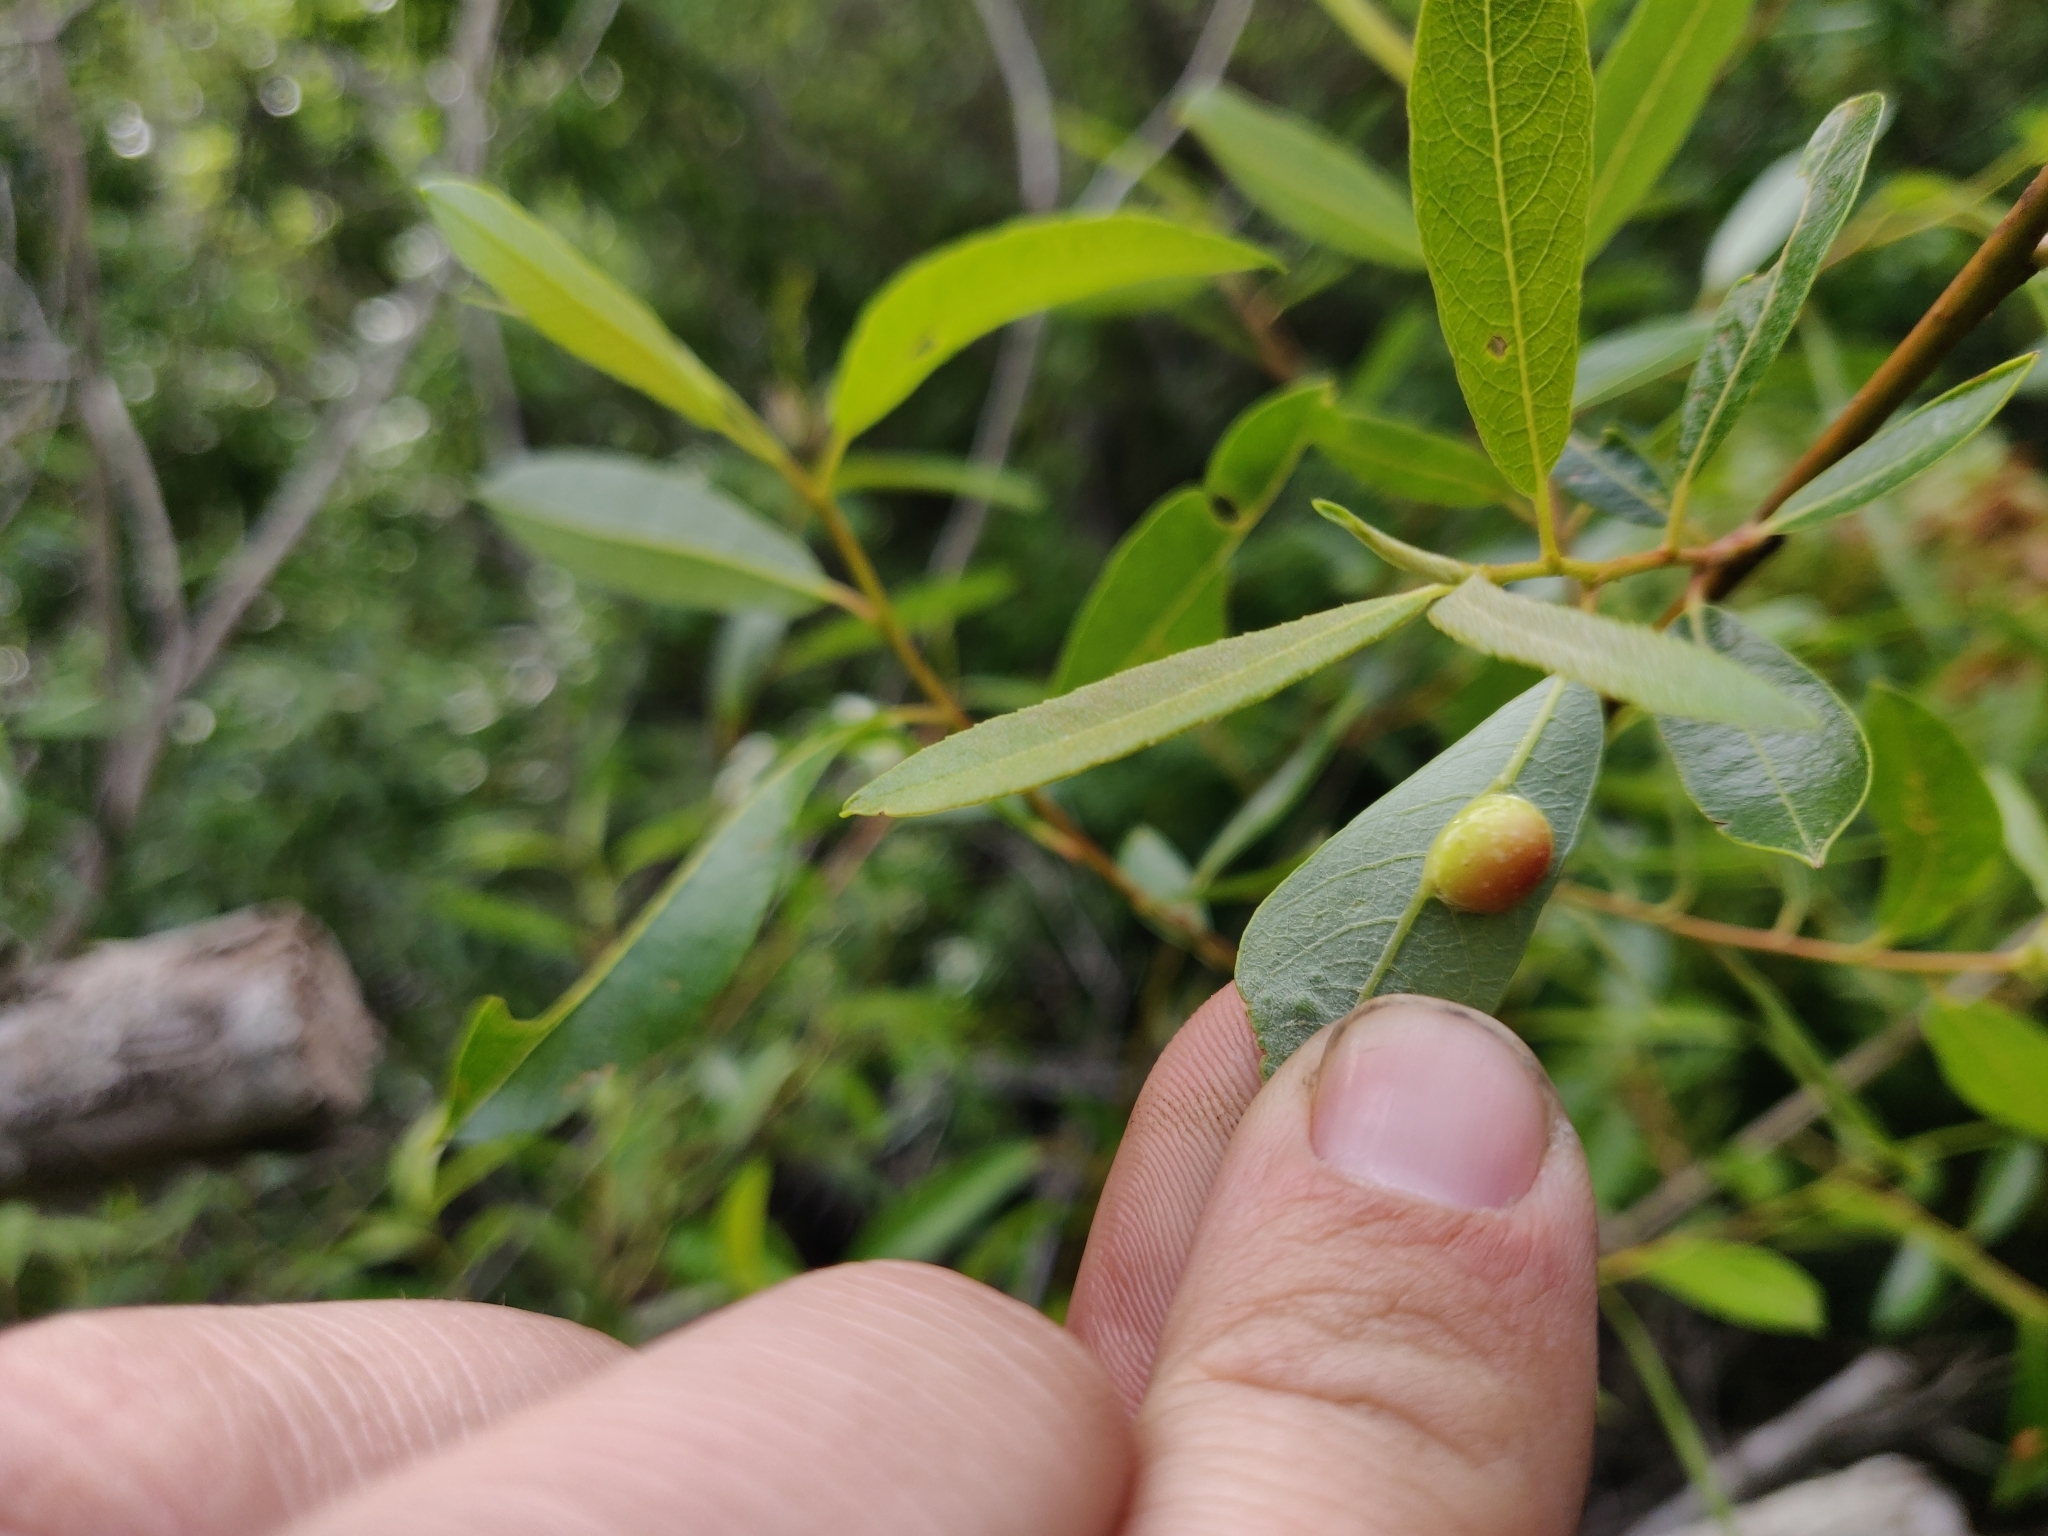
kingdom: Animalia
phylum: Arthropoda
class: Insecta
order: Hymenoptera
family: Tenthredinidae
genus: Euura
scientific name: Euura
